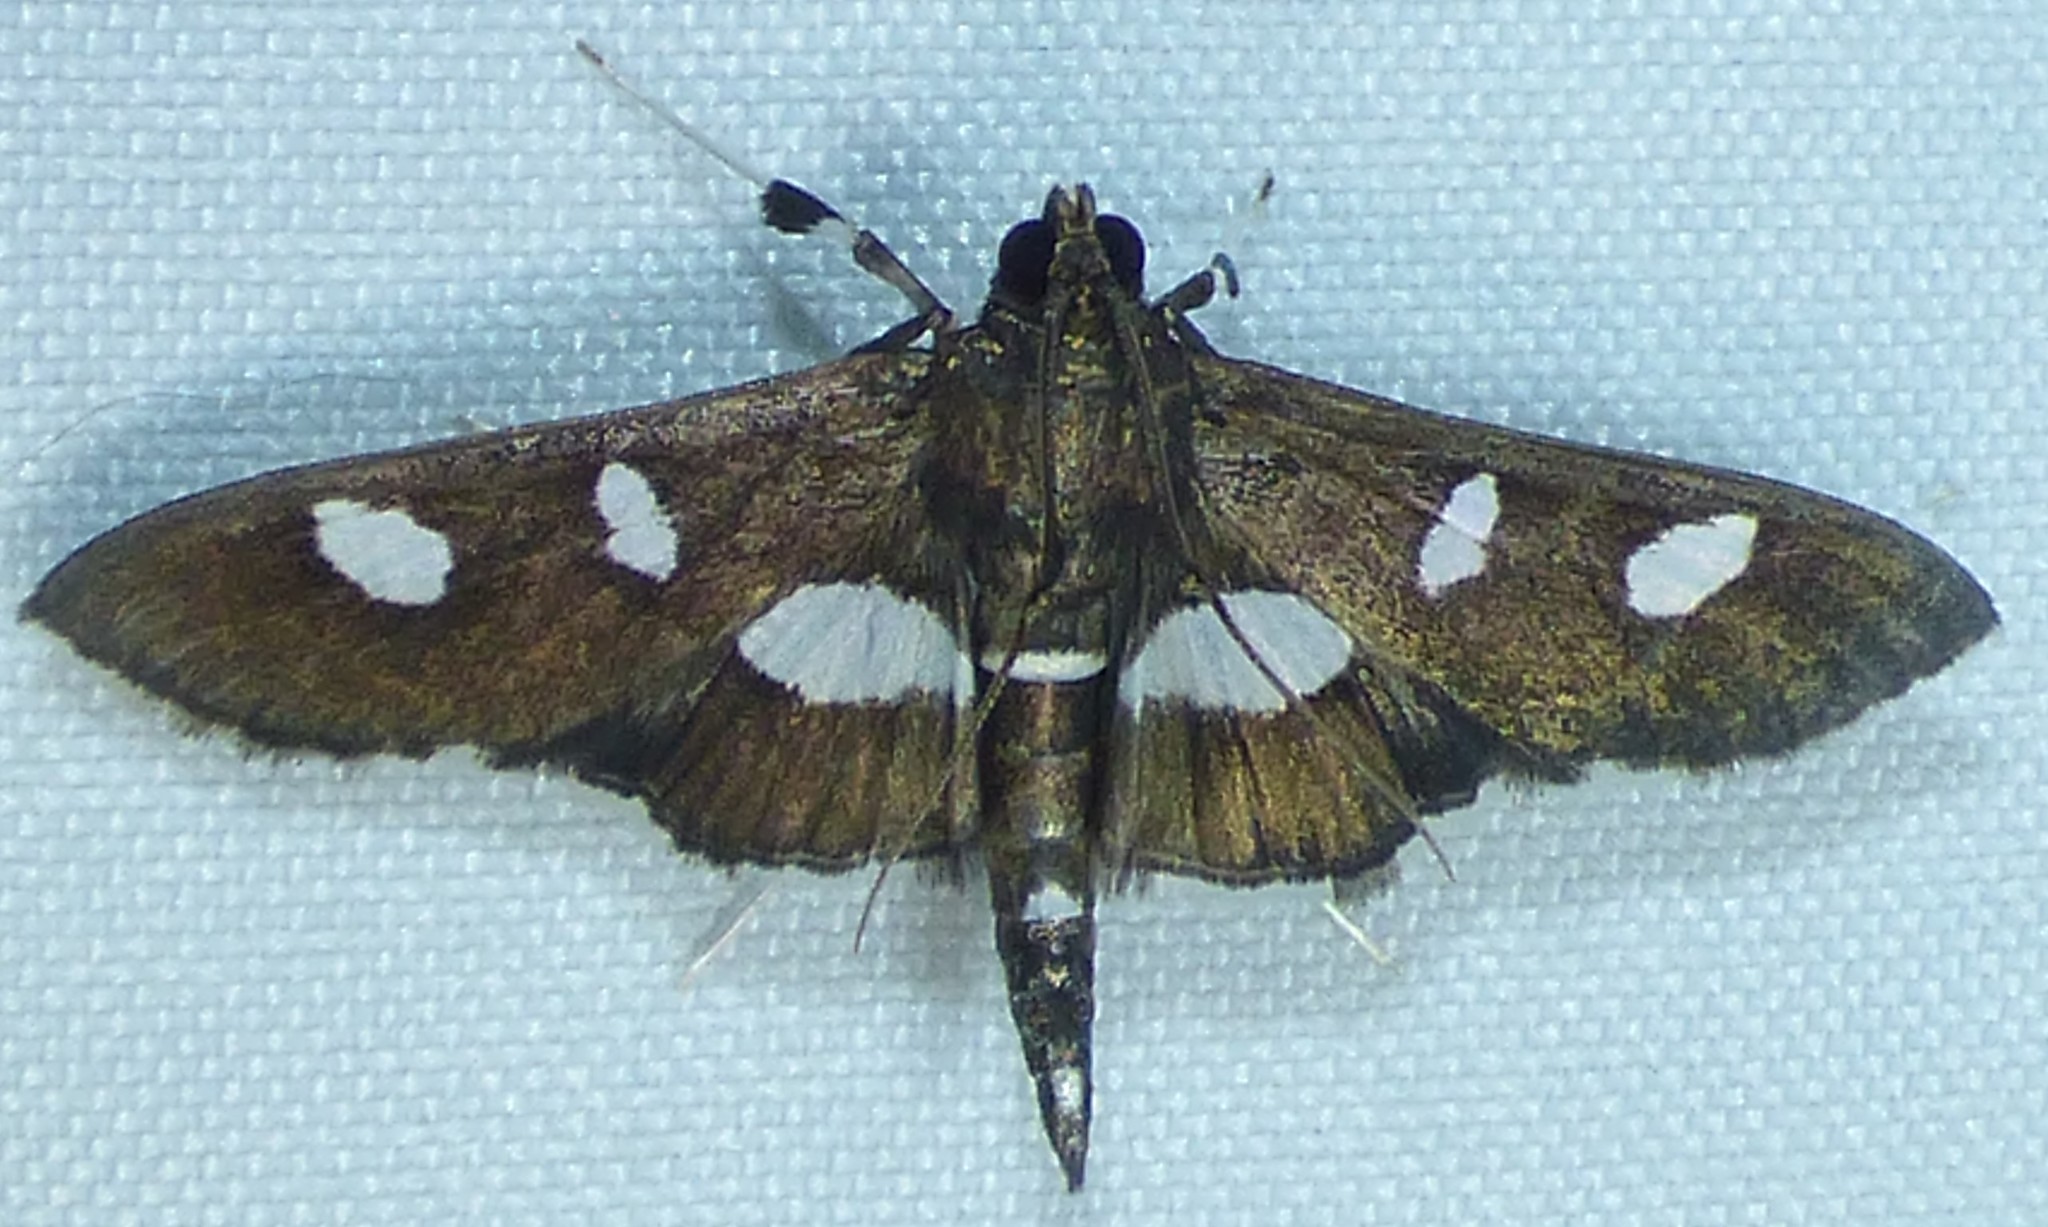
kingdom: Animalia
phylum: Arthropoda
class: Insecta
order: Lepidoptera
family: Crambidae
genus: Desmia
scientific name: Desmia funeralis
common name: Grape leaf folder moth
